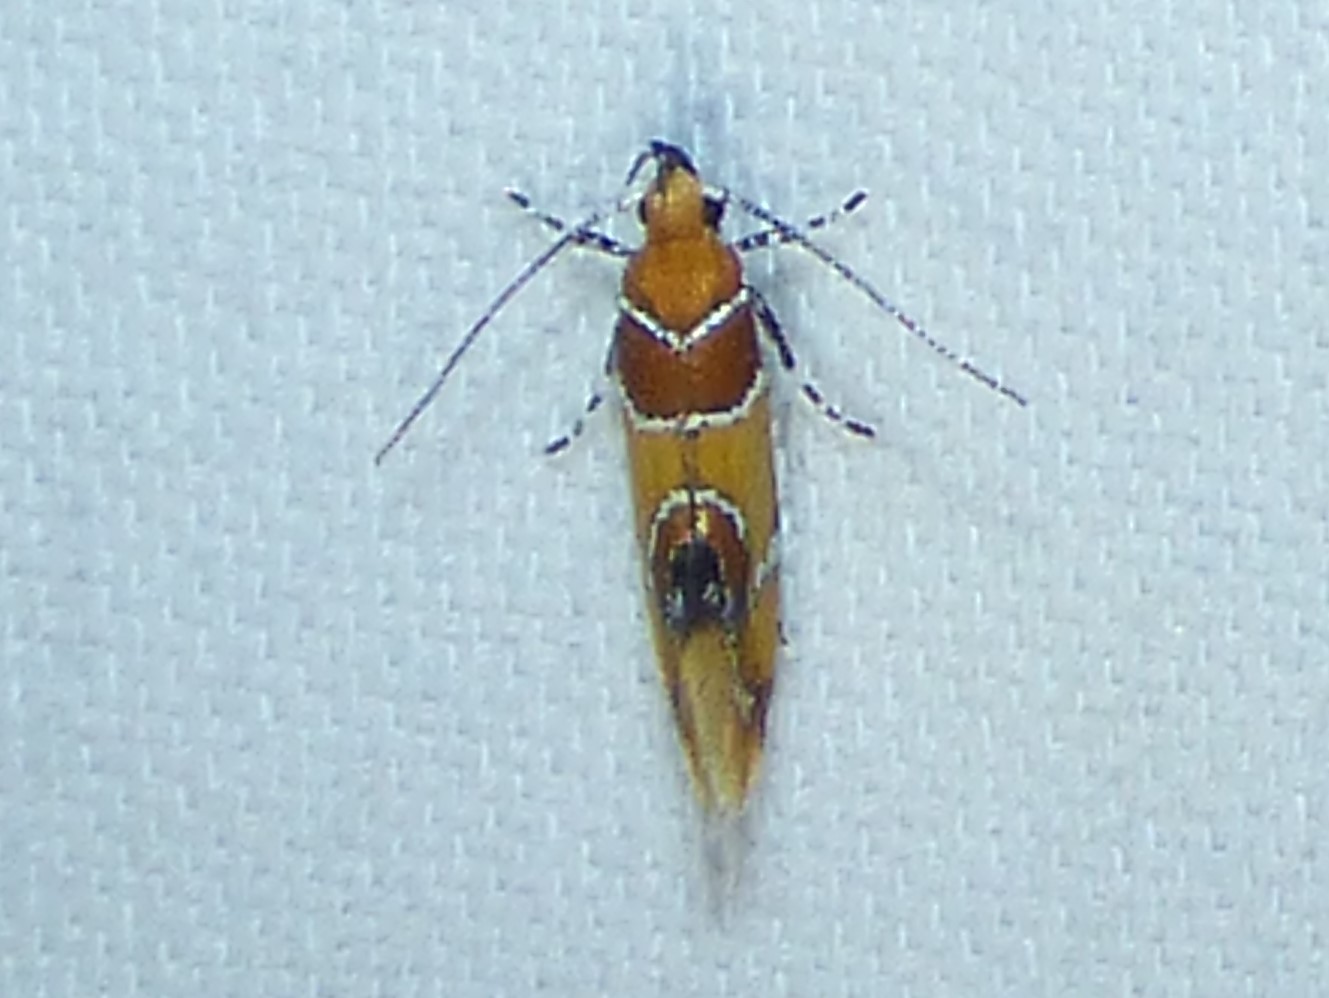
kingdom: Animalia
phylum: Arthropoda
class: Insecta
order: Lepidoptera
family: Oecophoridae
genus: Callima
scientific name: Callima argenticinctella
